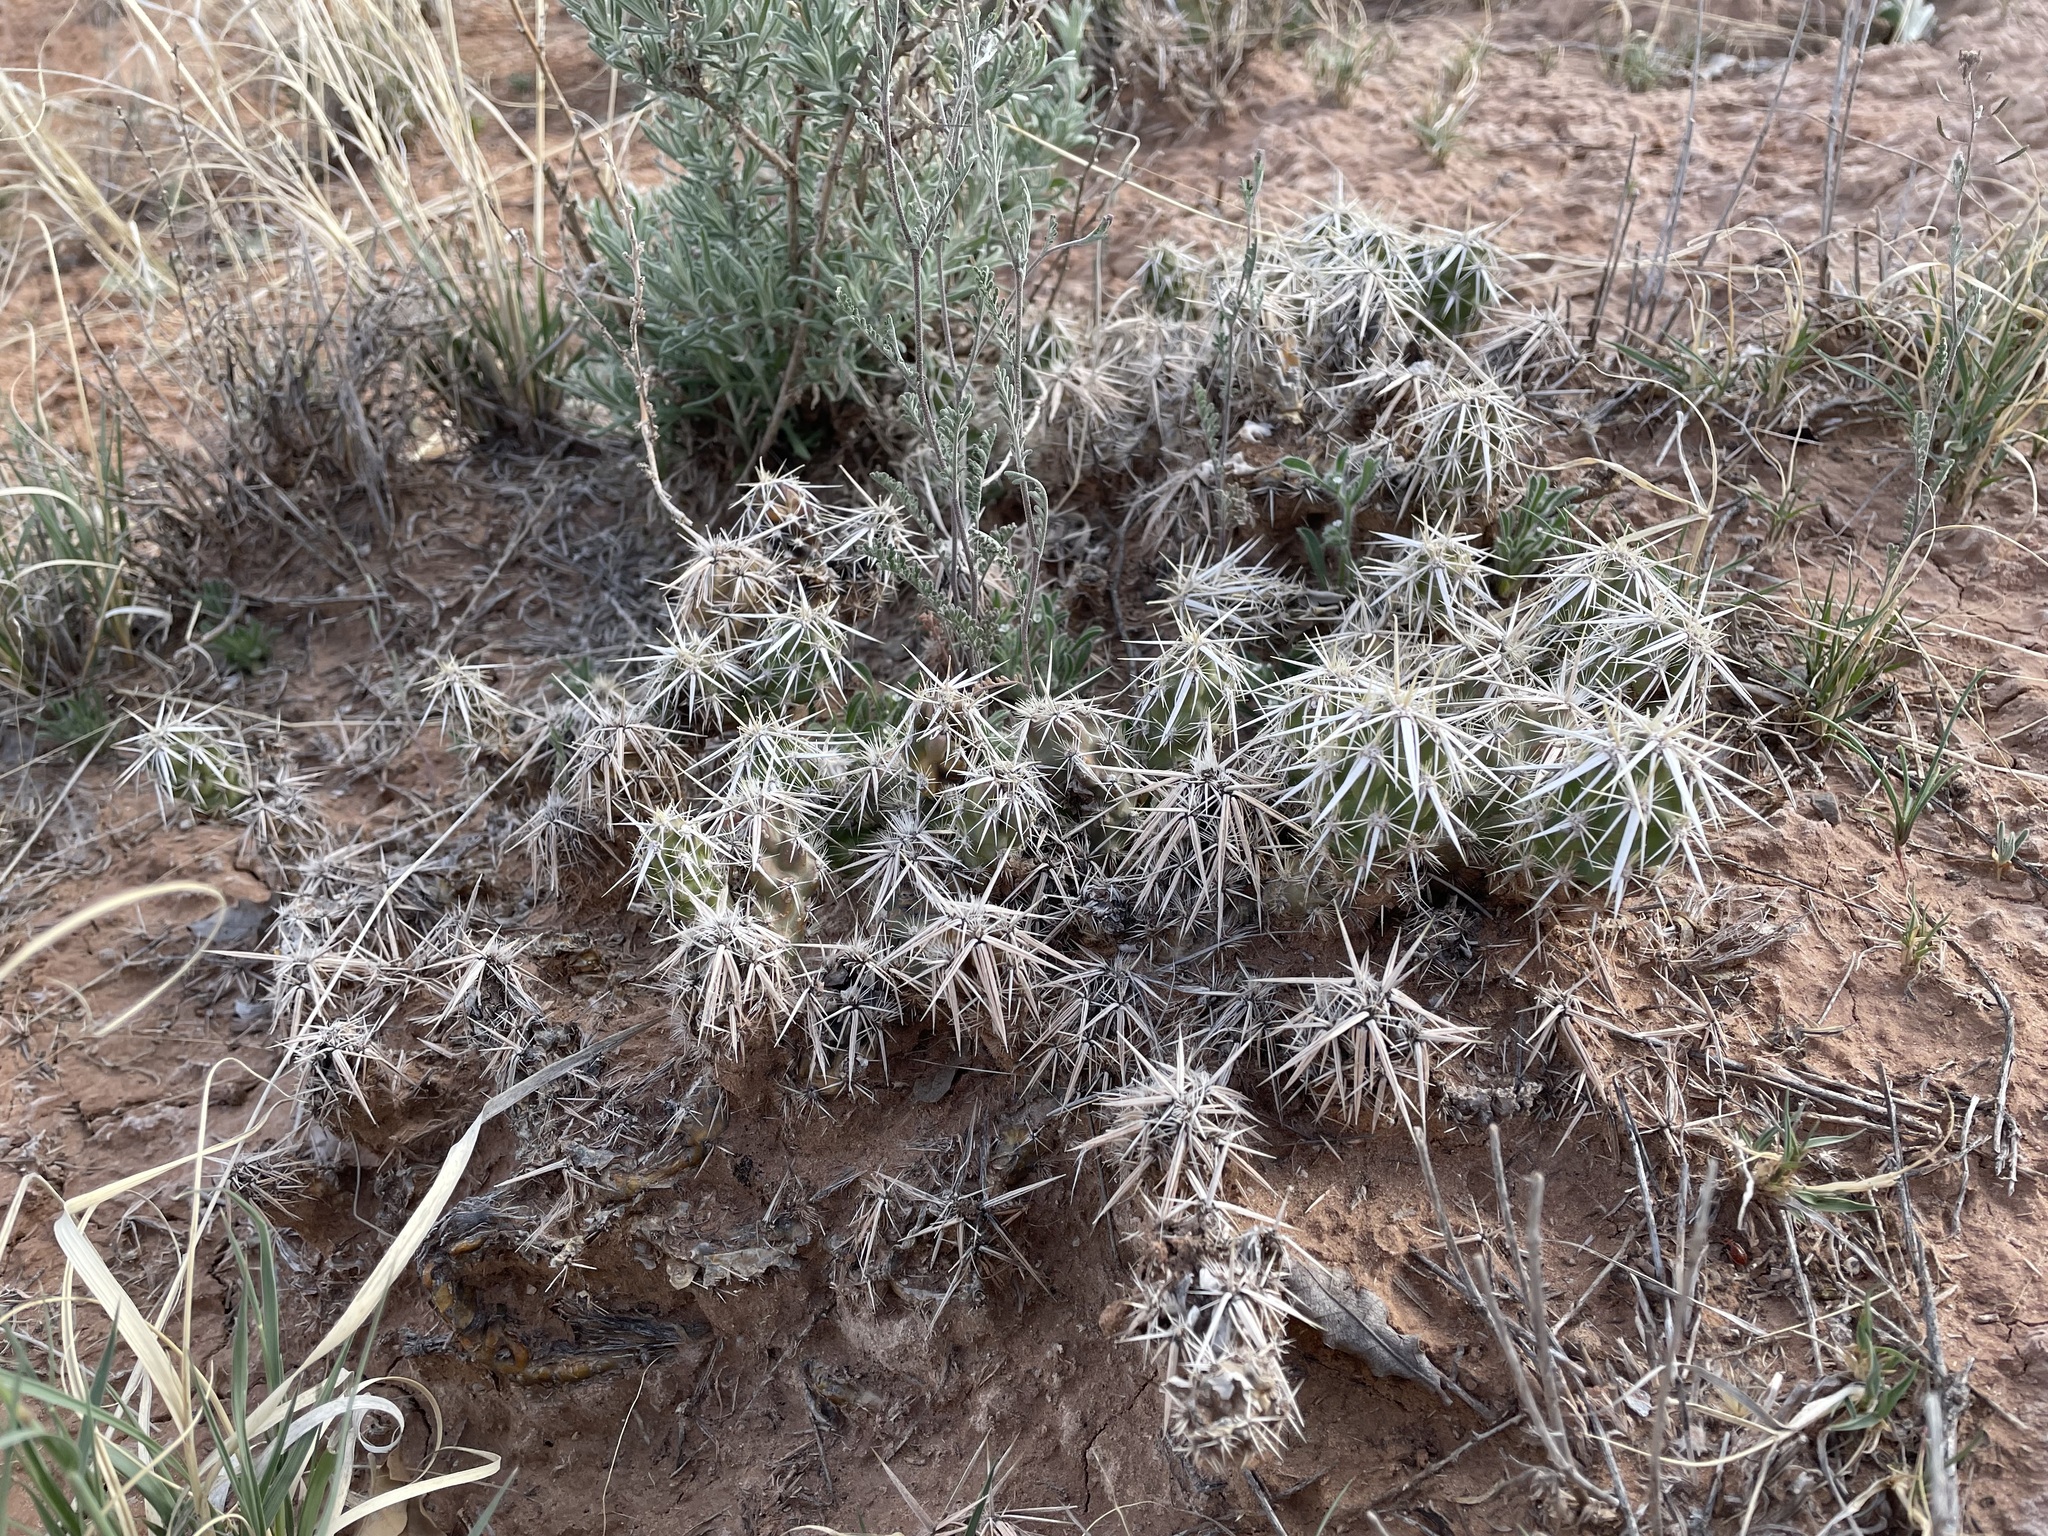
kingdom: Plantae
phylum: Tracheophyta
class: Magnoliopsida
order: Caryophyllales
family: Cactaceae
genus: Grusonia
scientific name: Grusonia clavata
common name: Club cholla
